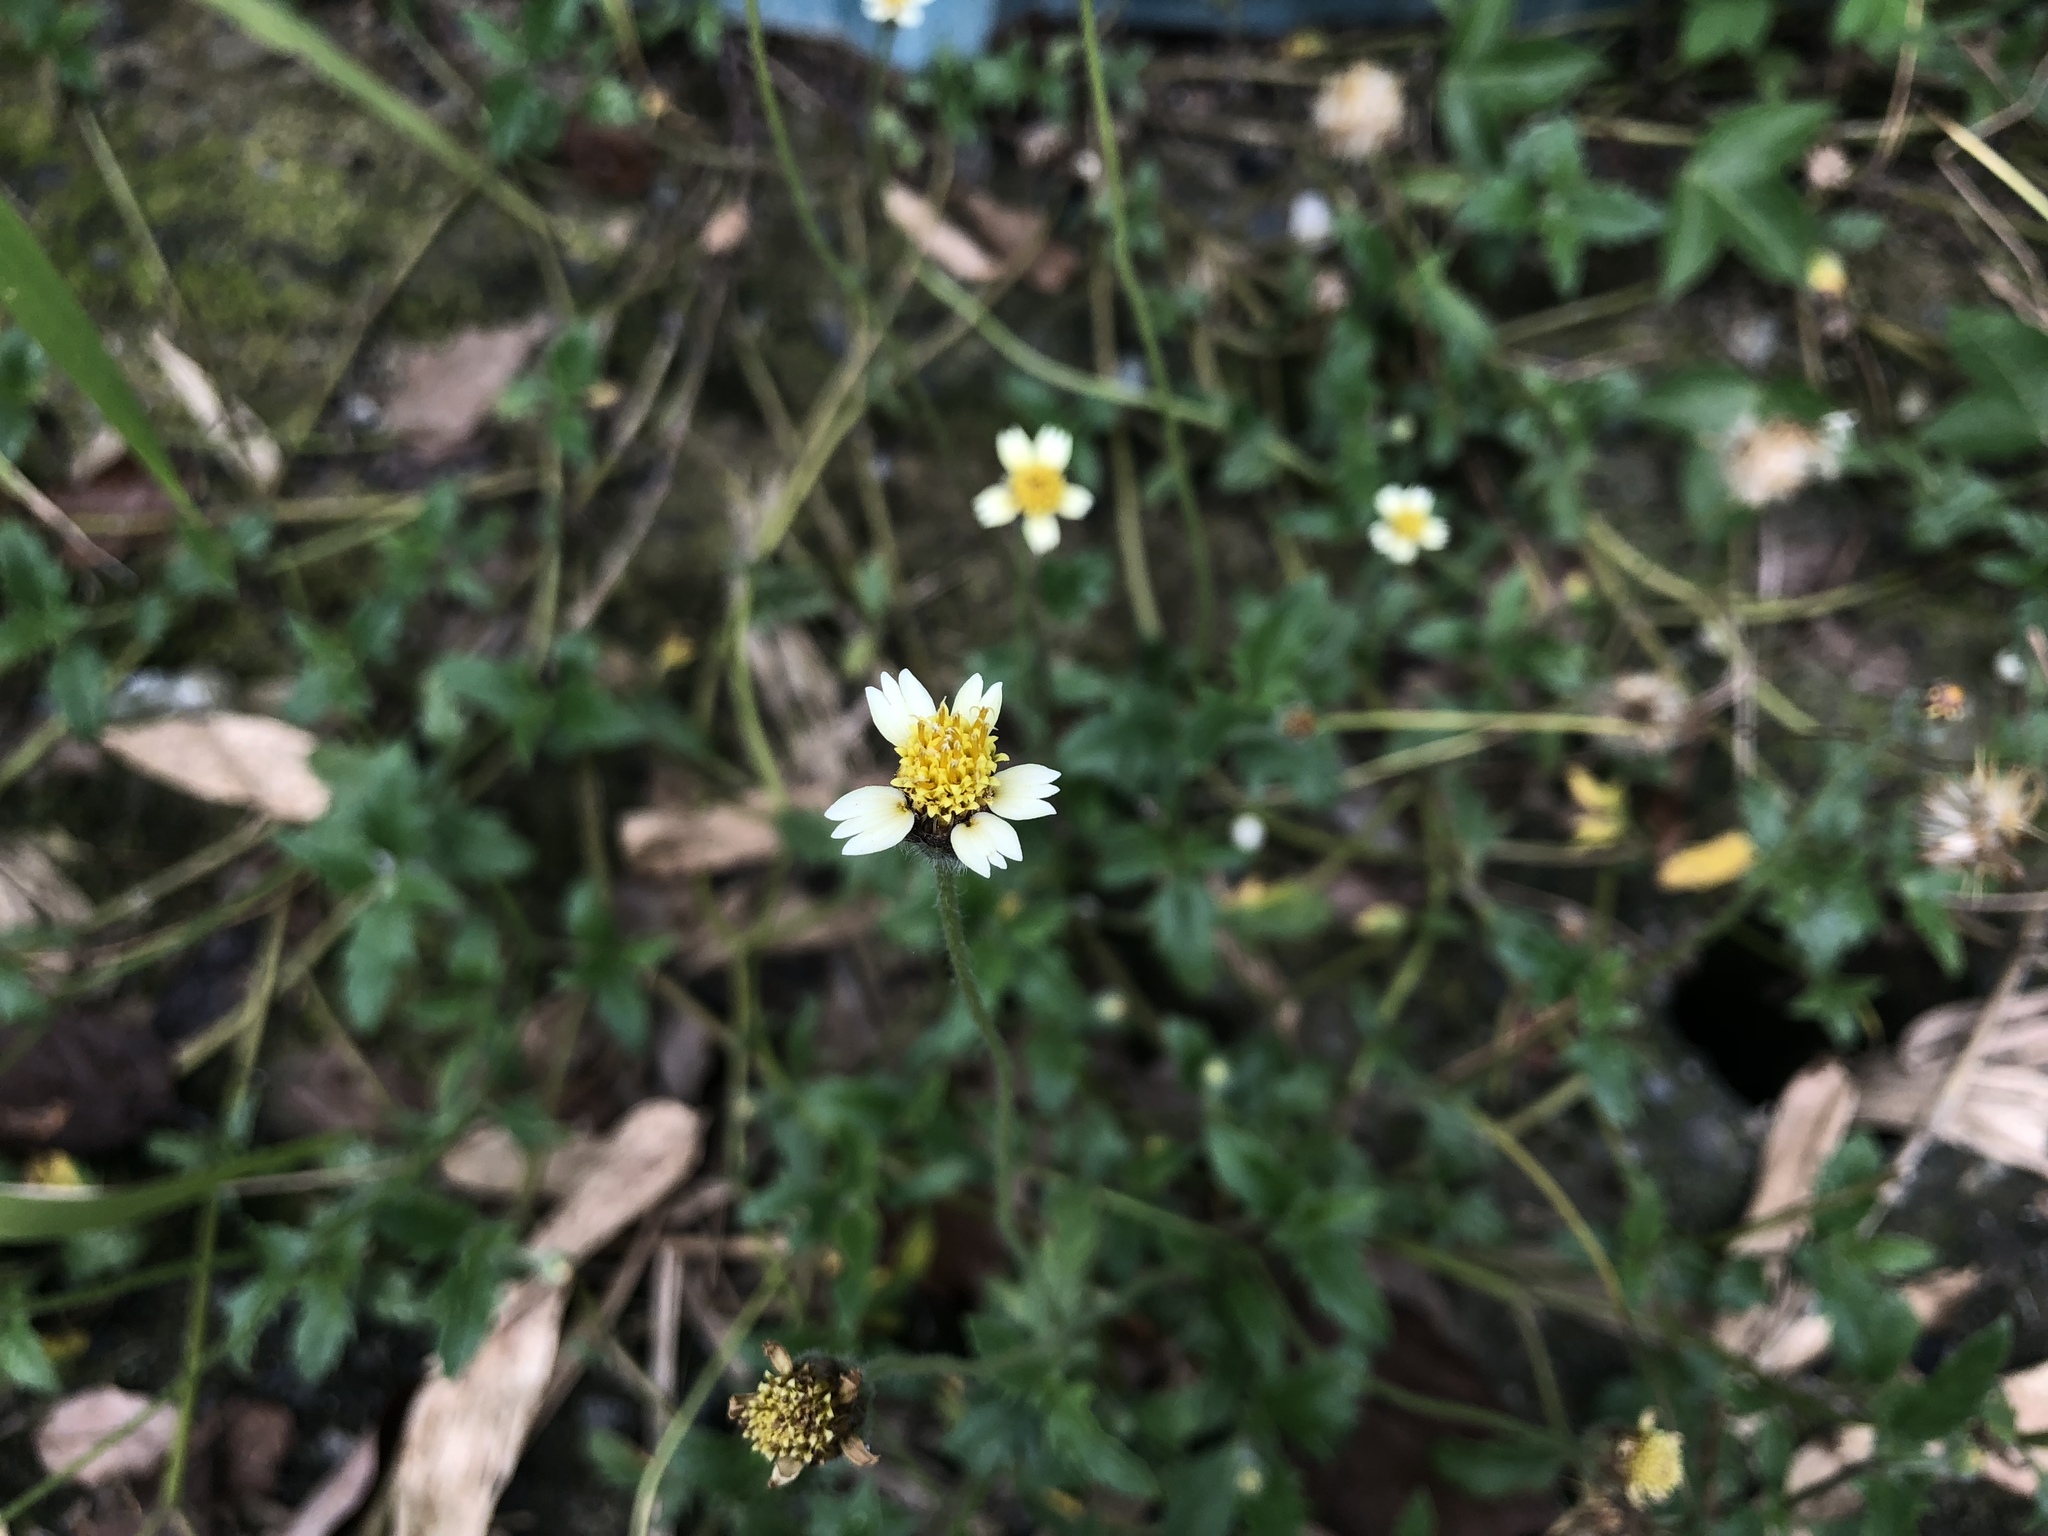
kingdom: Plantae
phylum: Tracheophyta
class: Magnoliopsida
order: Asterales
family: Asteraceae
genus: Tridax
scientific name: Tridax procumbens
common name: Coatbuttons
